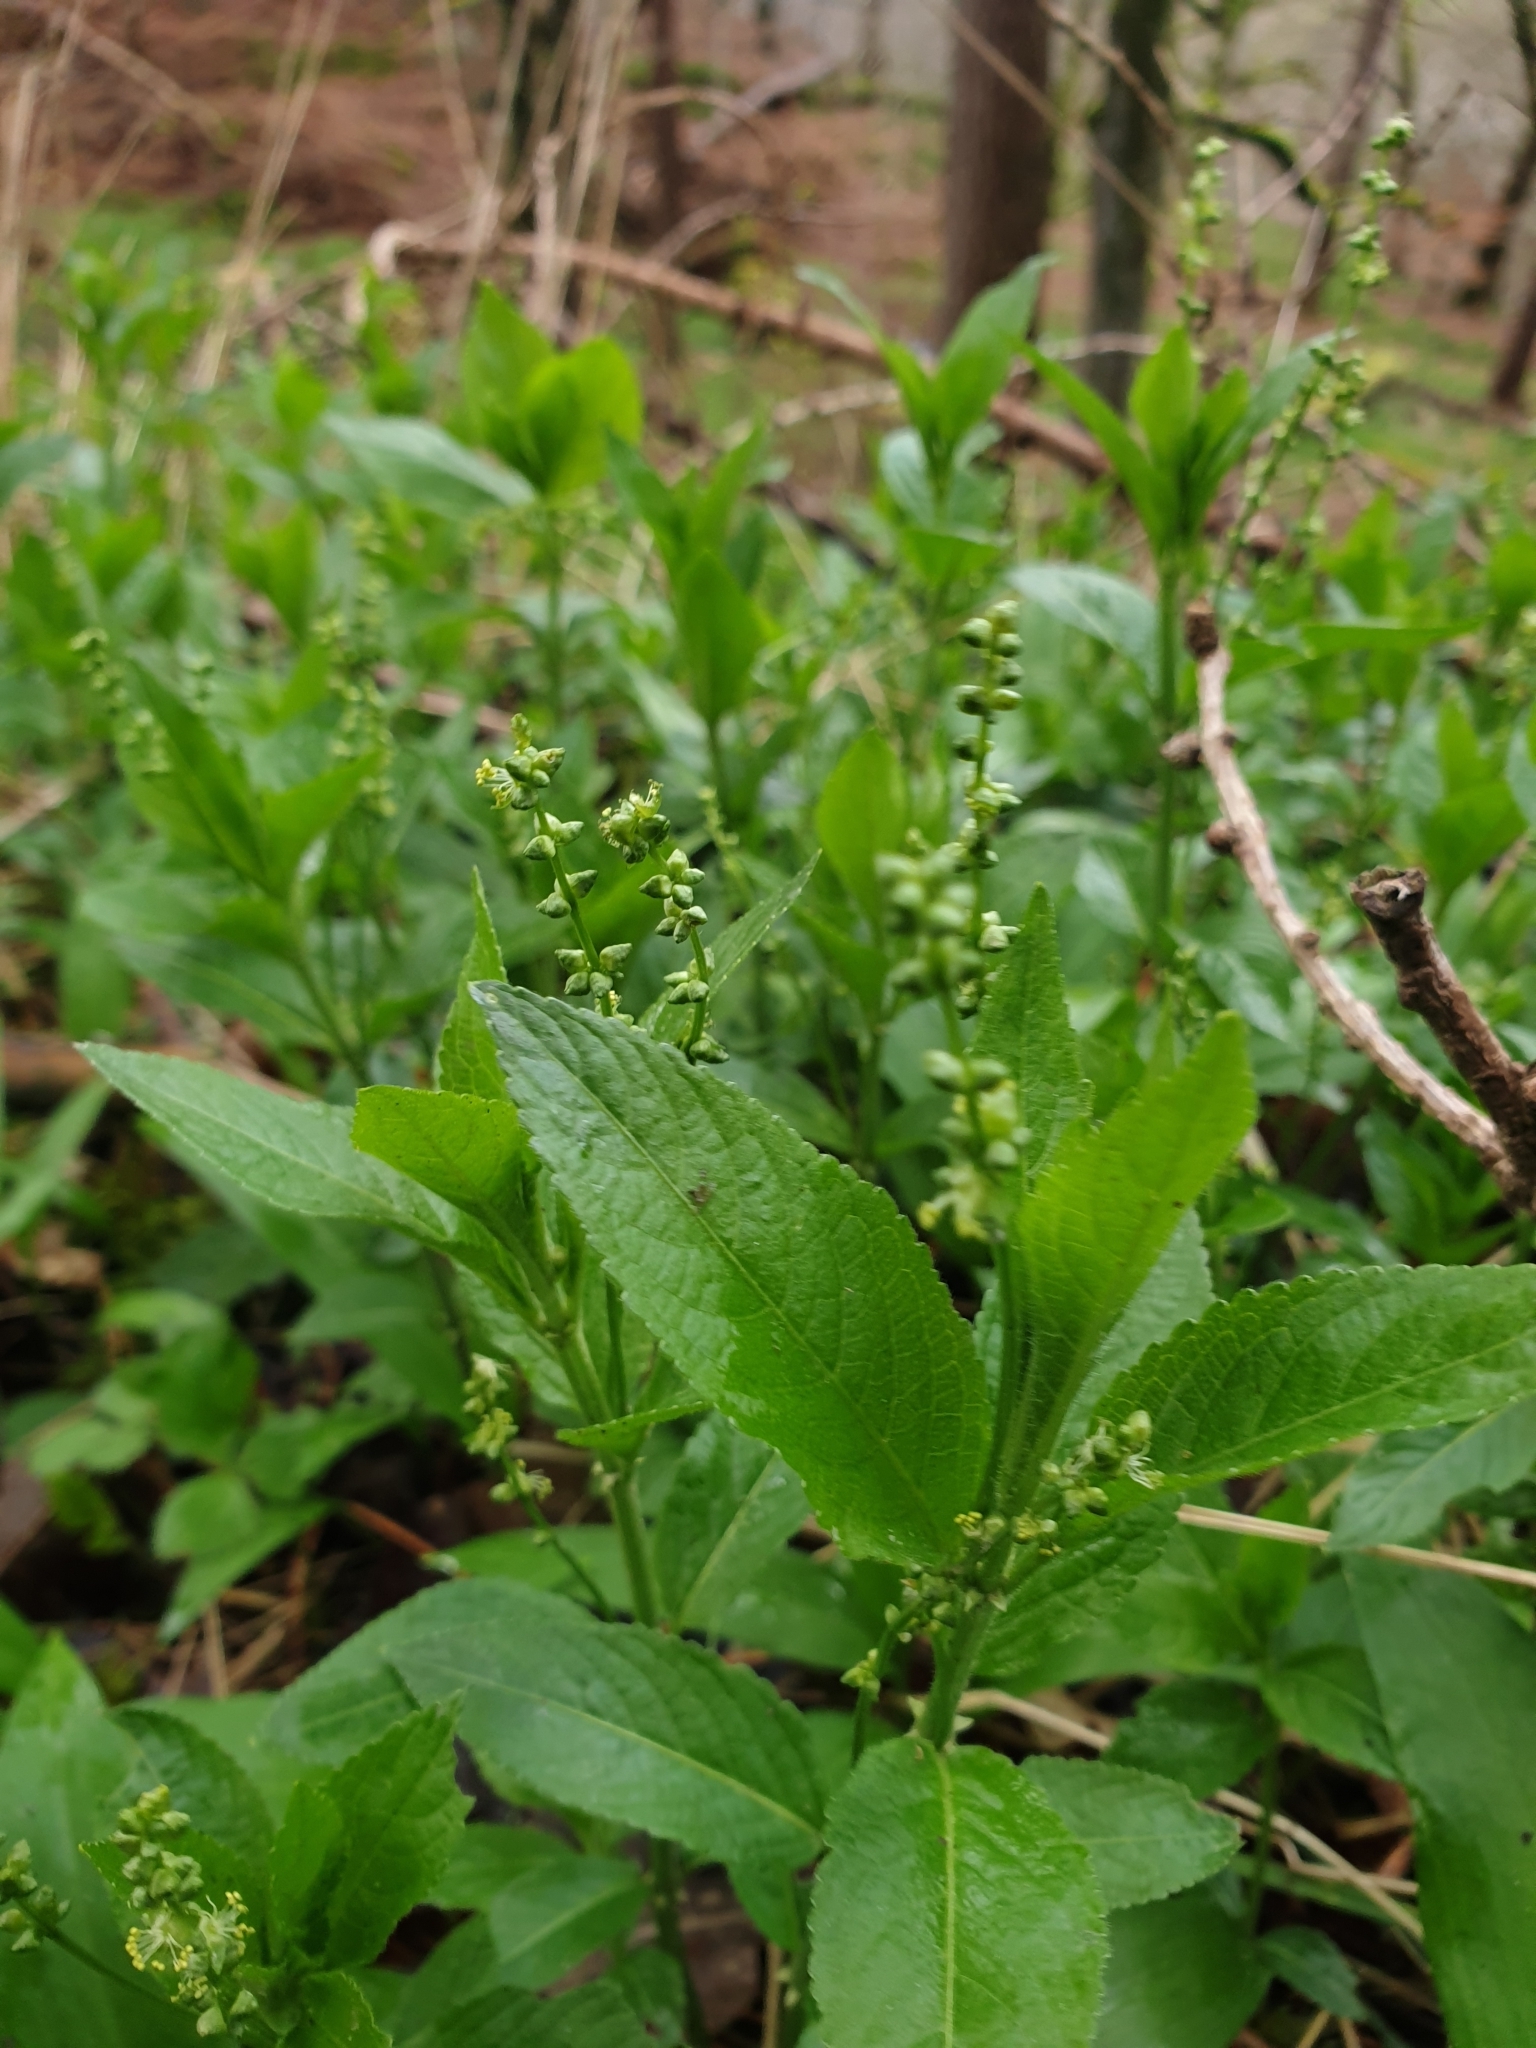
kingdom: Plantae
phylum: Tracheophyta
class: Magnoliopsida
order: Malpighiales
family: Euphorbiaceae
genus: Mercurialis
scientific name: Mercurialis perennis
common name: Dog mercury
